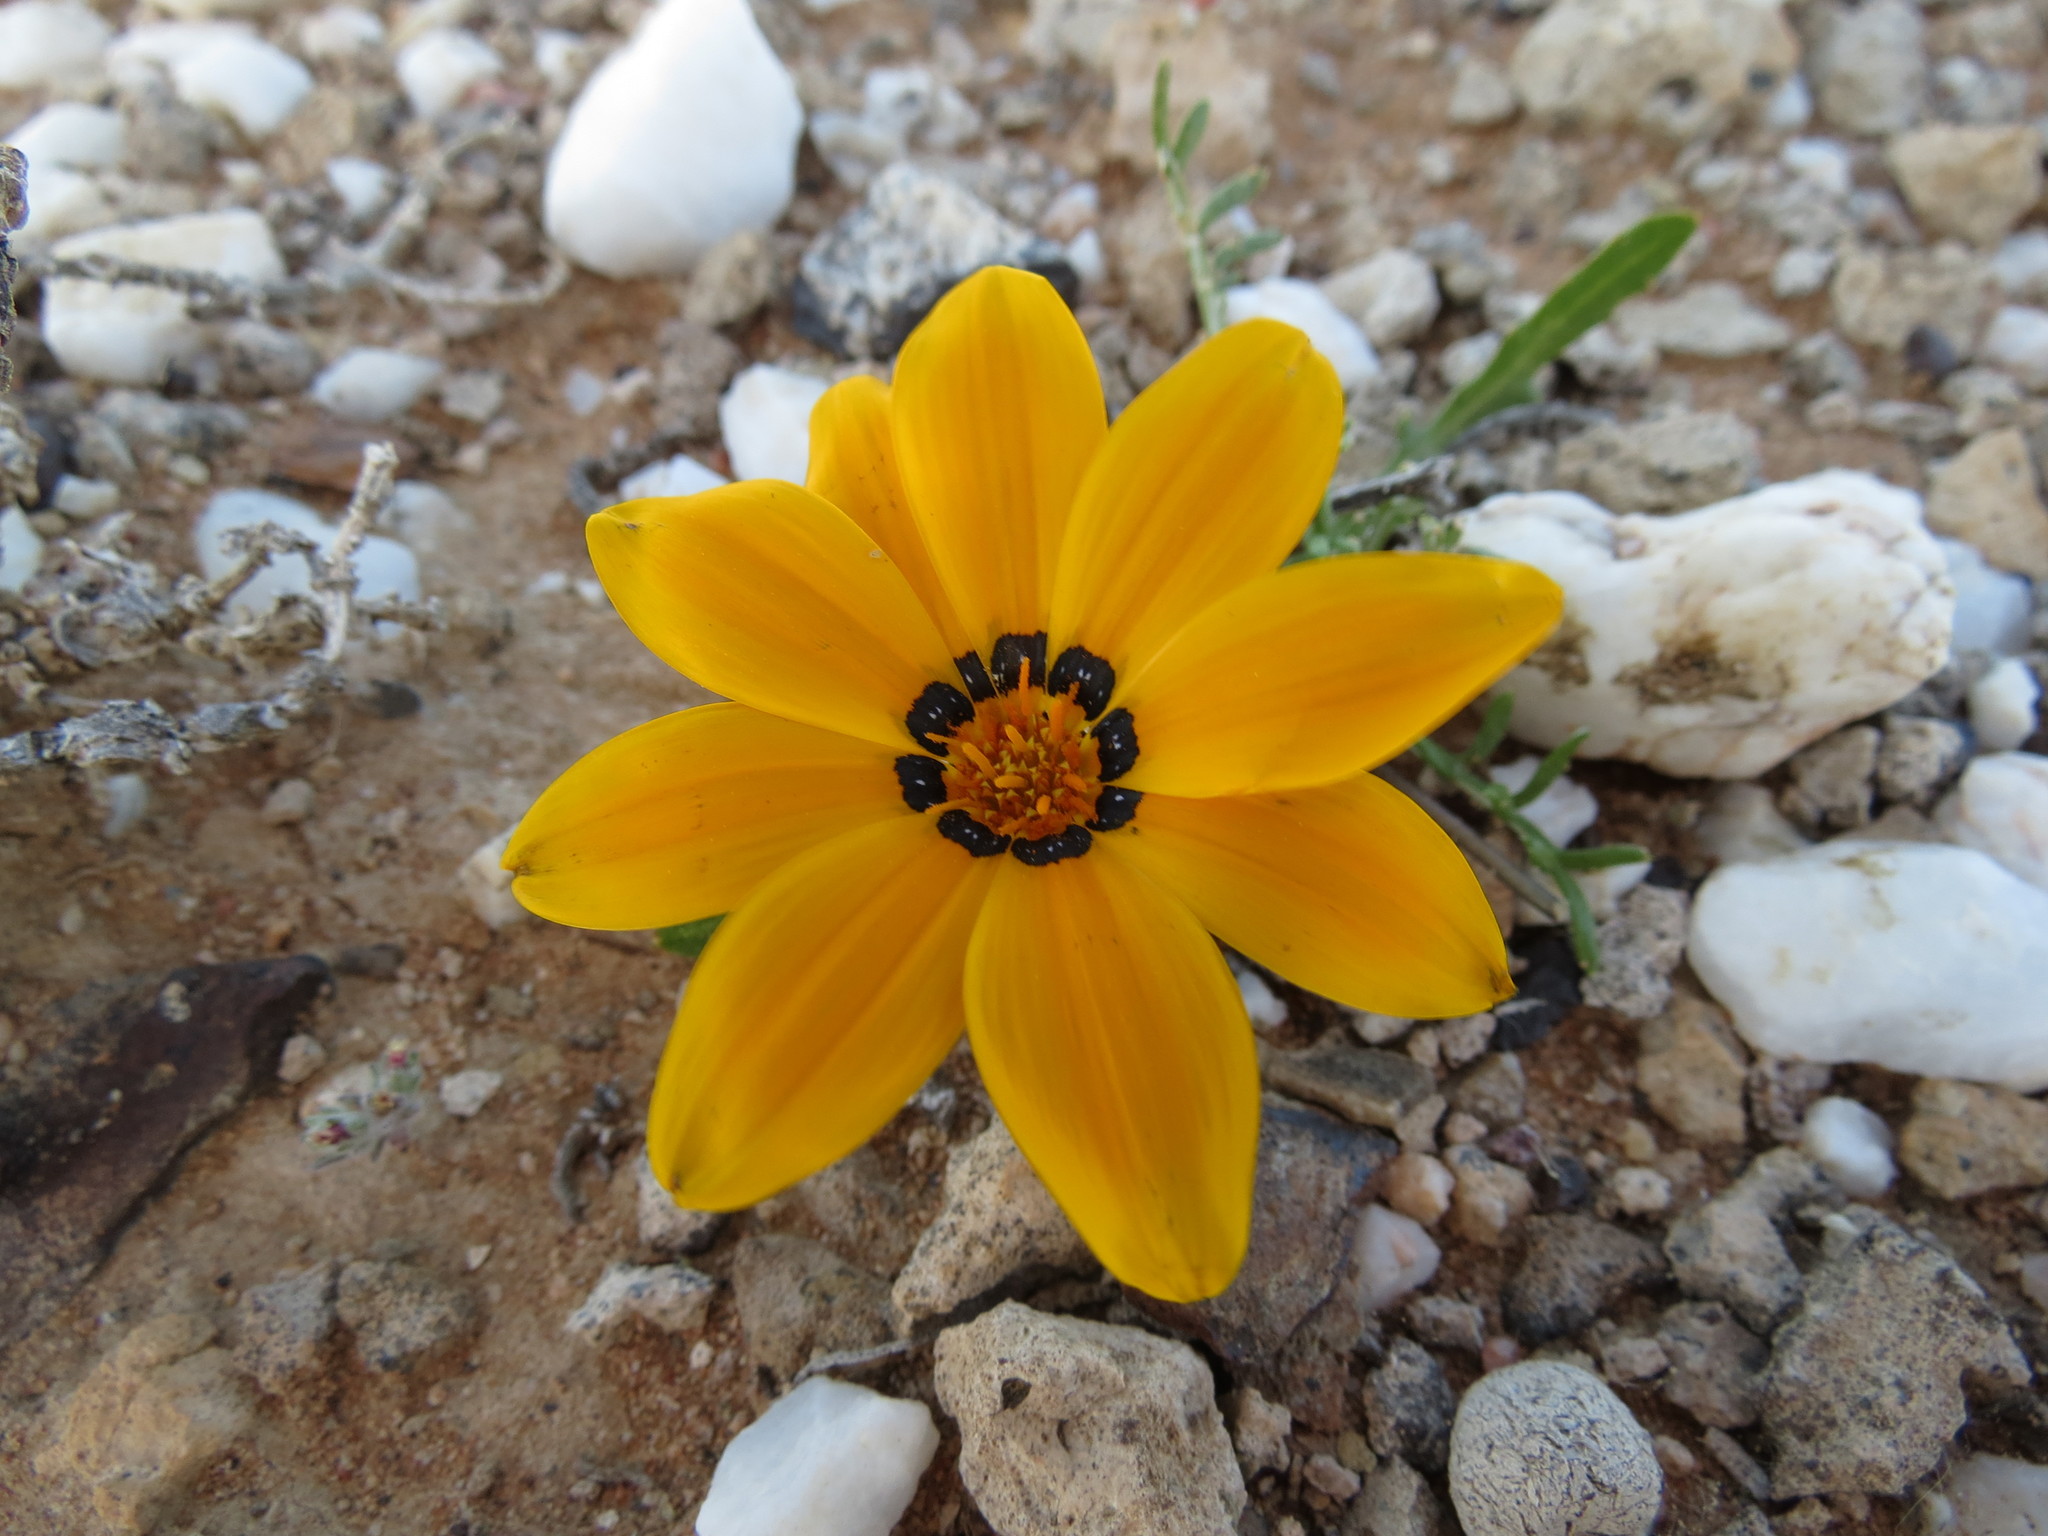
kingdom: Plantae
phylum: Tracheophyta
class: Magnoliopsida
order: Asterales
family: Asteraceae
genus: Gazania
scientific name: Gazania krebsiana
